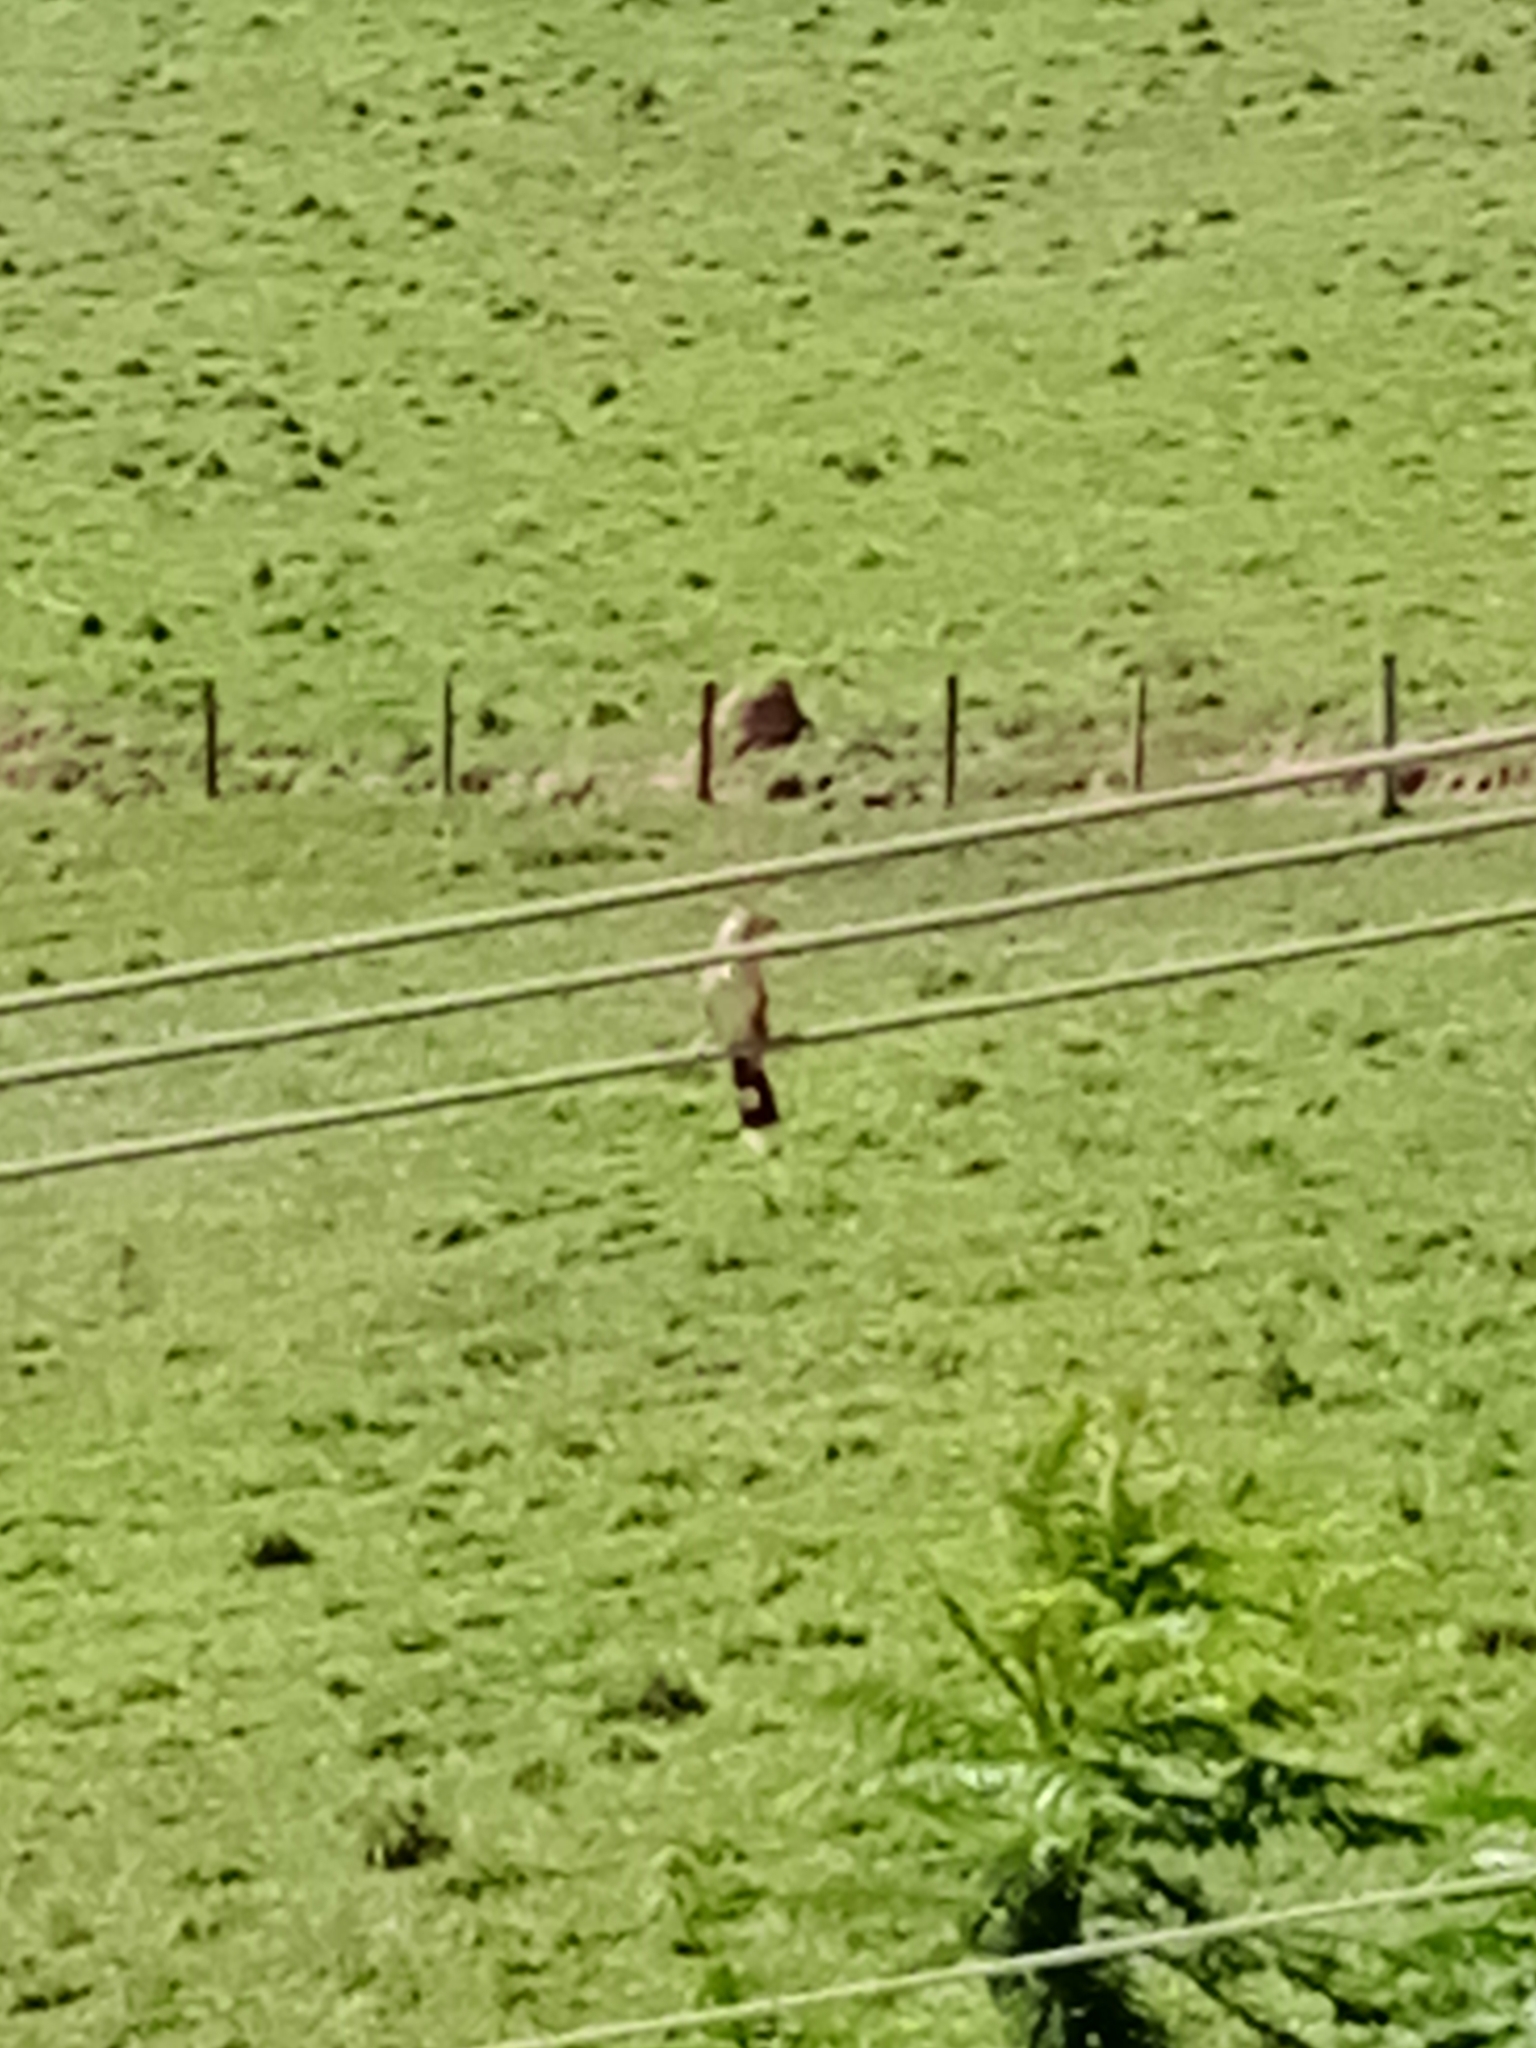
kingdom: Animalia
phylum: Chordata
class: Aves
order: Cuculiformes
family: Cuculidae
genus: Guira
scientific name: Guira guira
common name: Guira cuckoo
